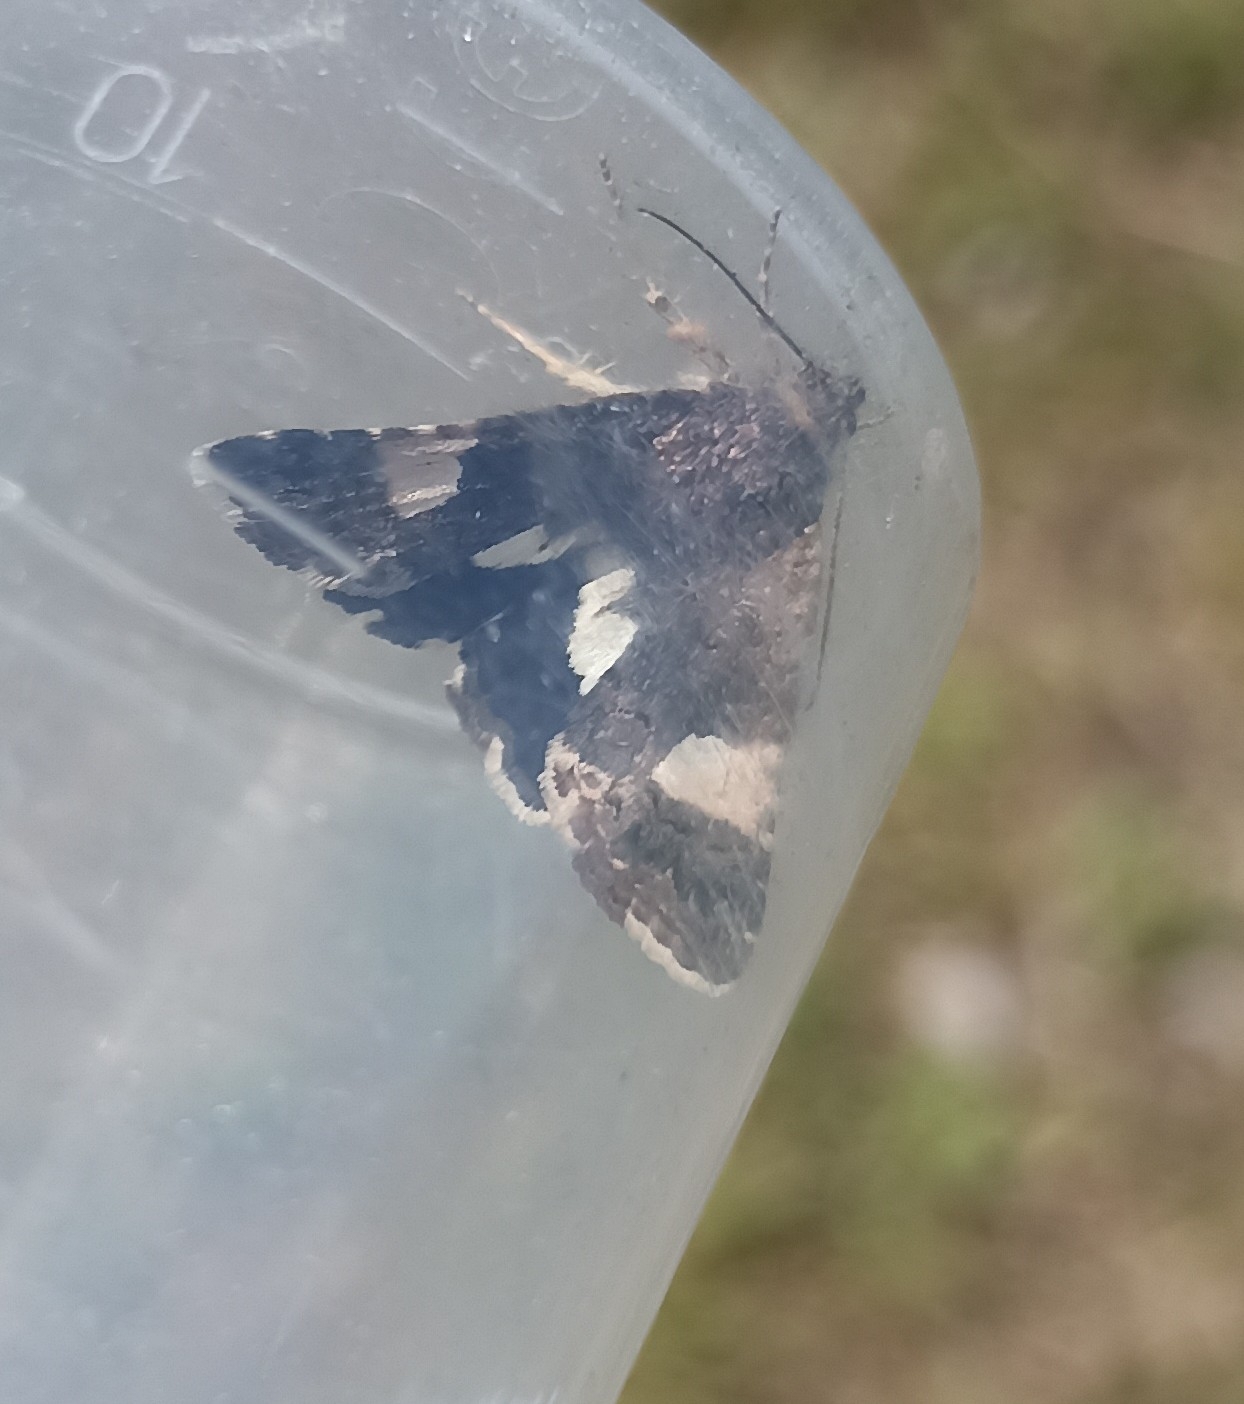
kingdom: Animalia
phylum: Arthropoda
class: Insecta
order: Lepidoptera
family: Erebidae
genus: Tyta
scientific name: Tyta luctuosa
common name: Four-spotted
